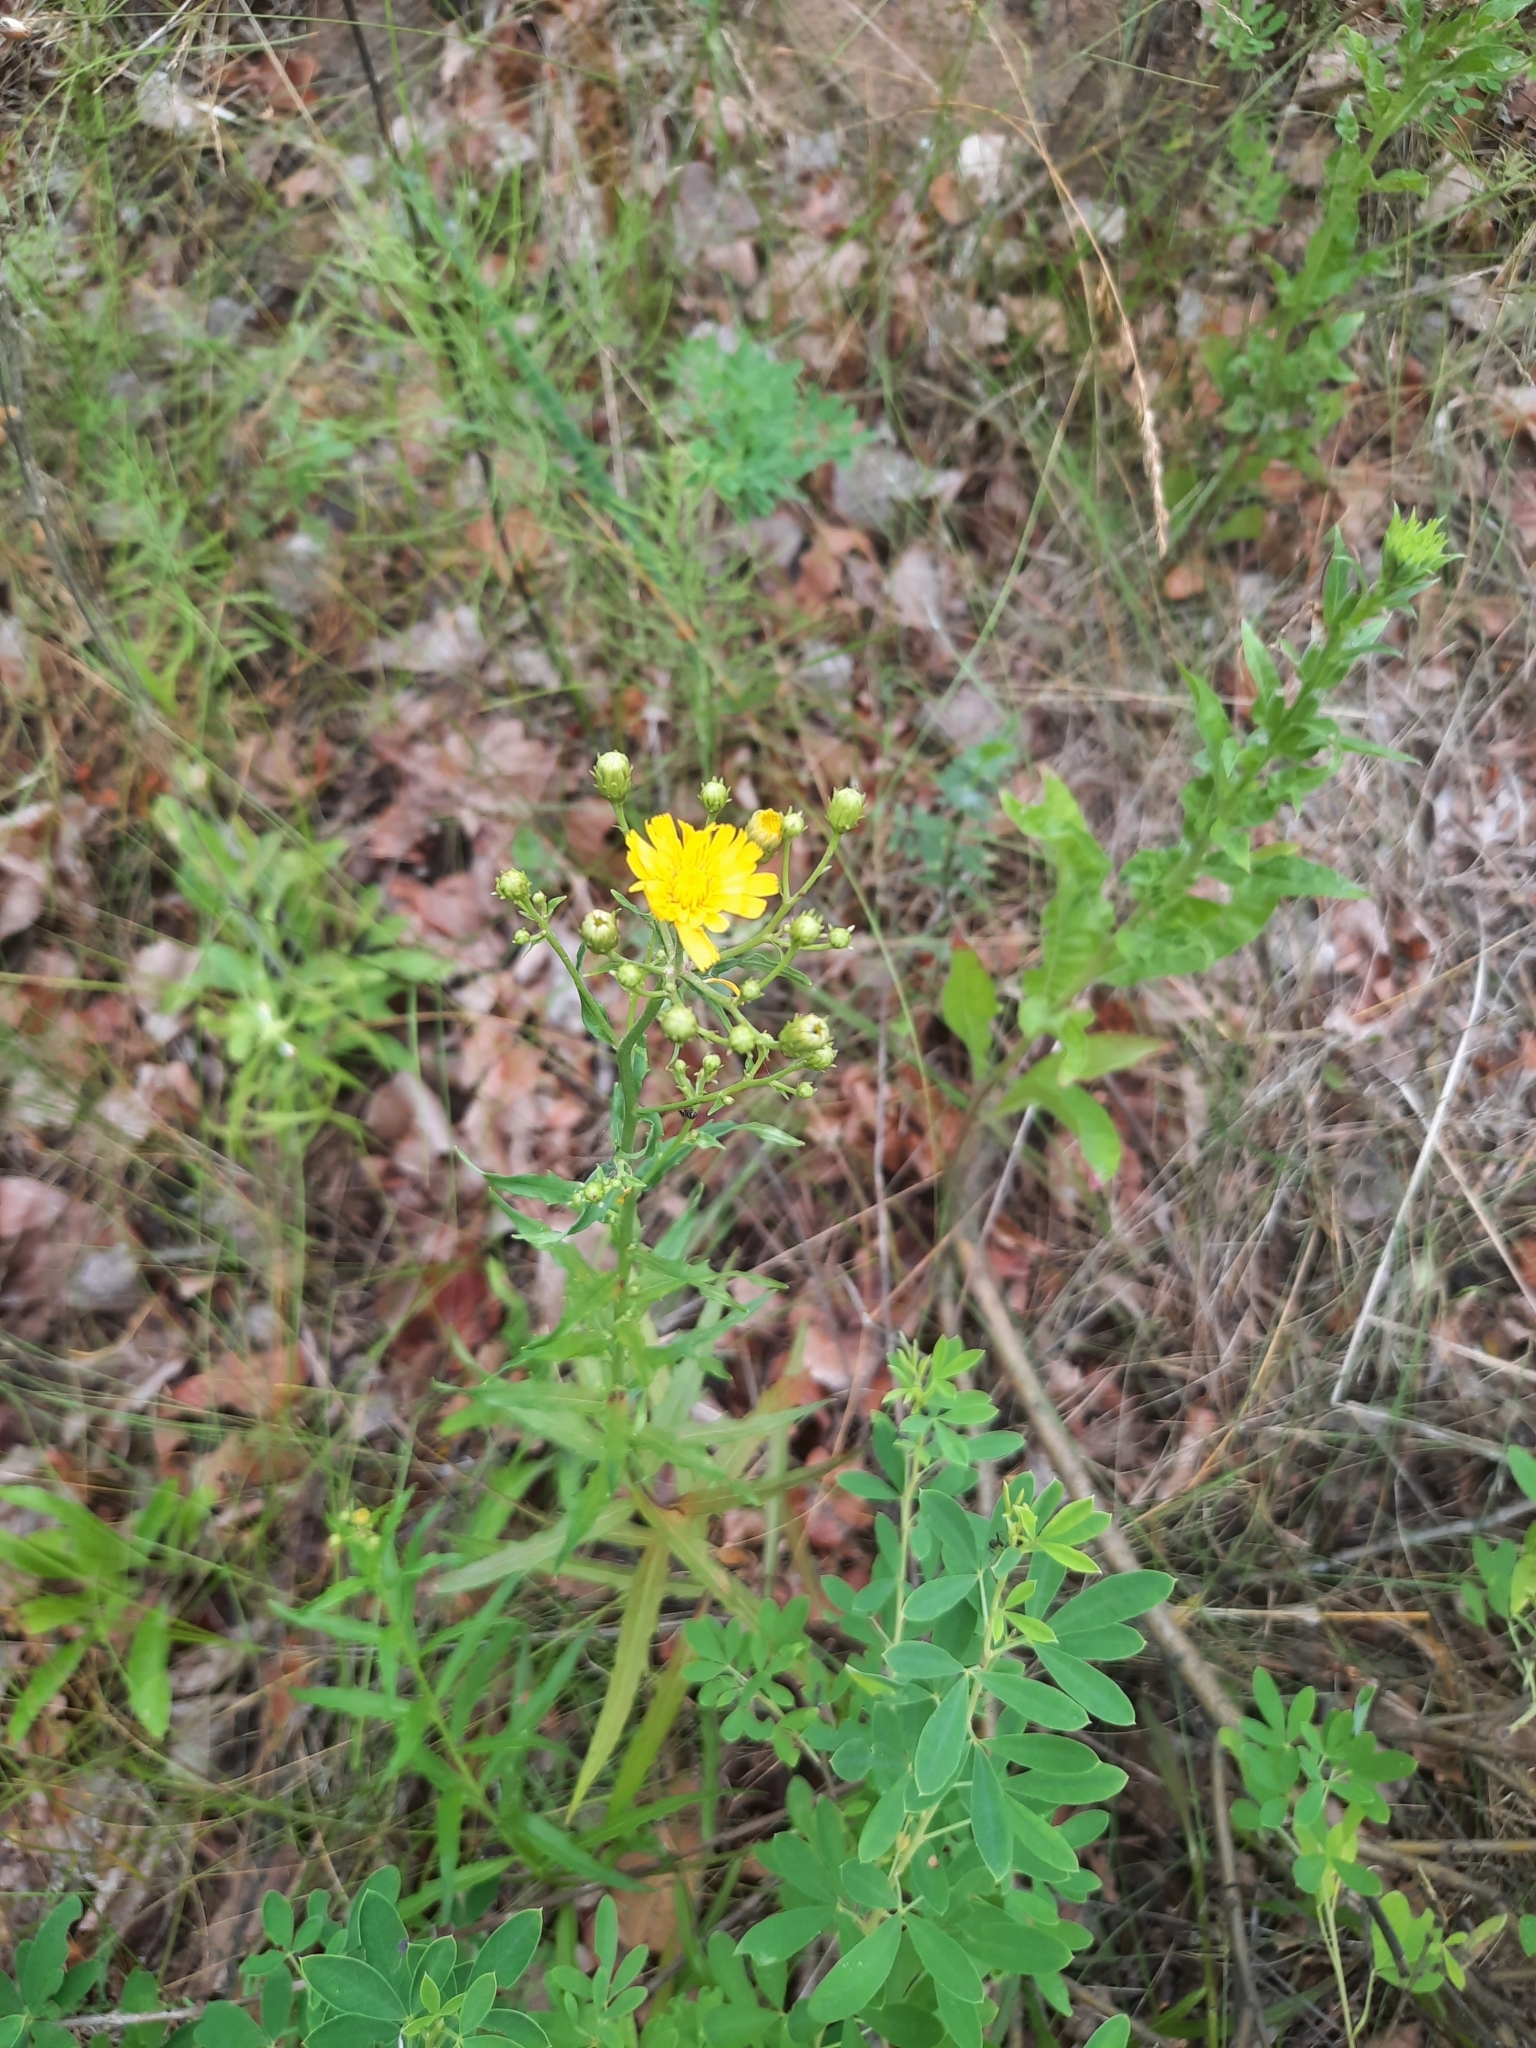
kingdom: Plantae
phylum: Tracheophyta
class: Magnoliopsida
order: Asterales
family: Asteraceae
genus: Hieracium
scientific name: Hieracium umbellatum
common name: Northern hawkweed
